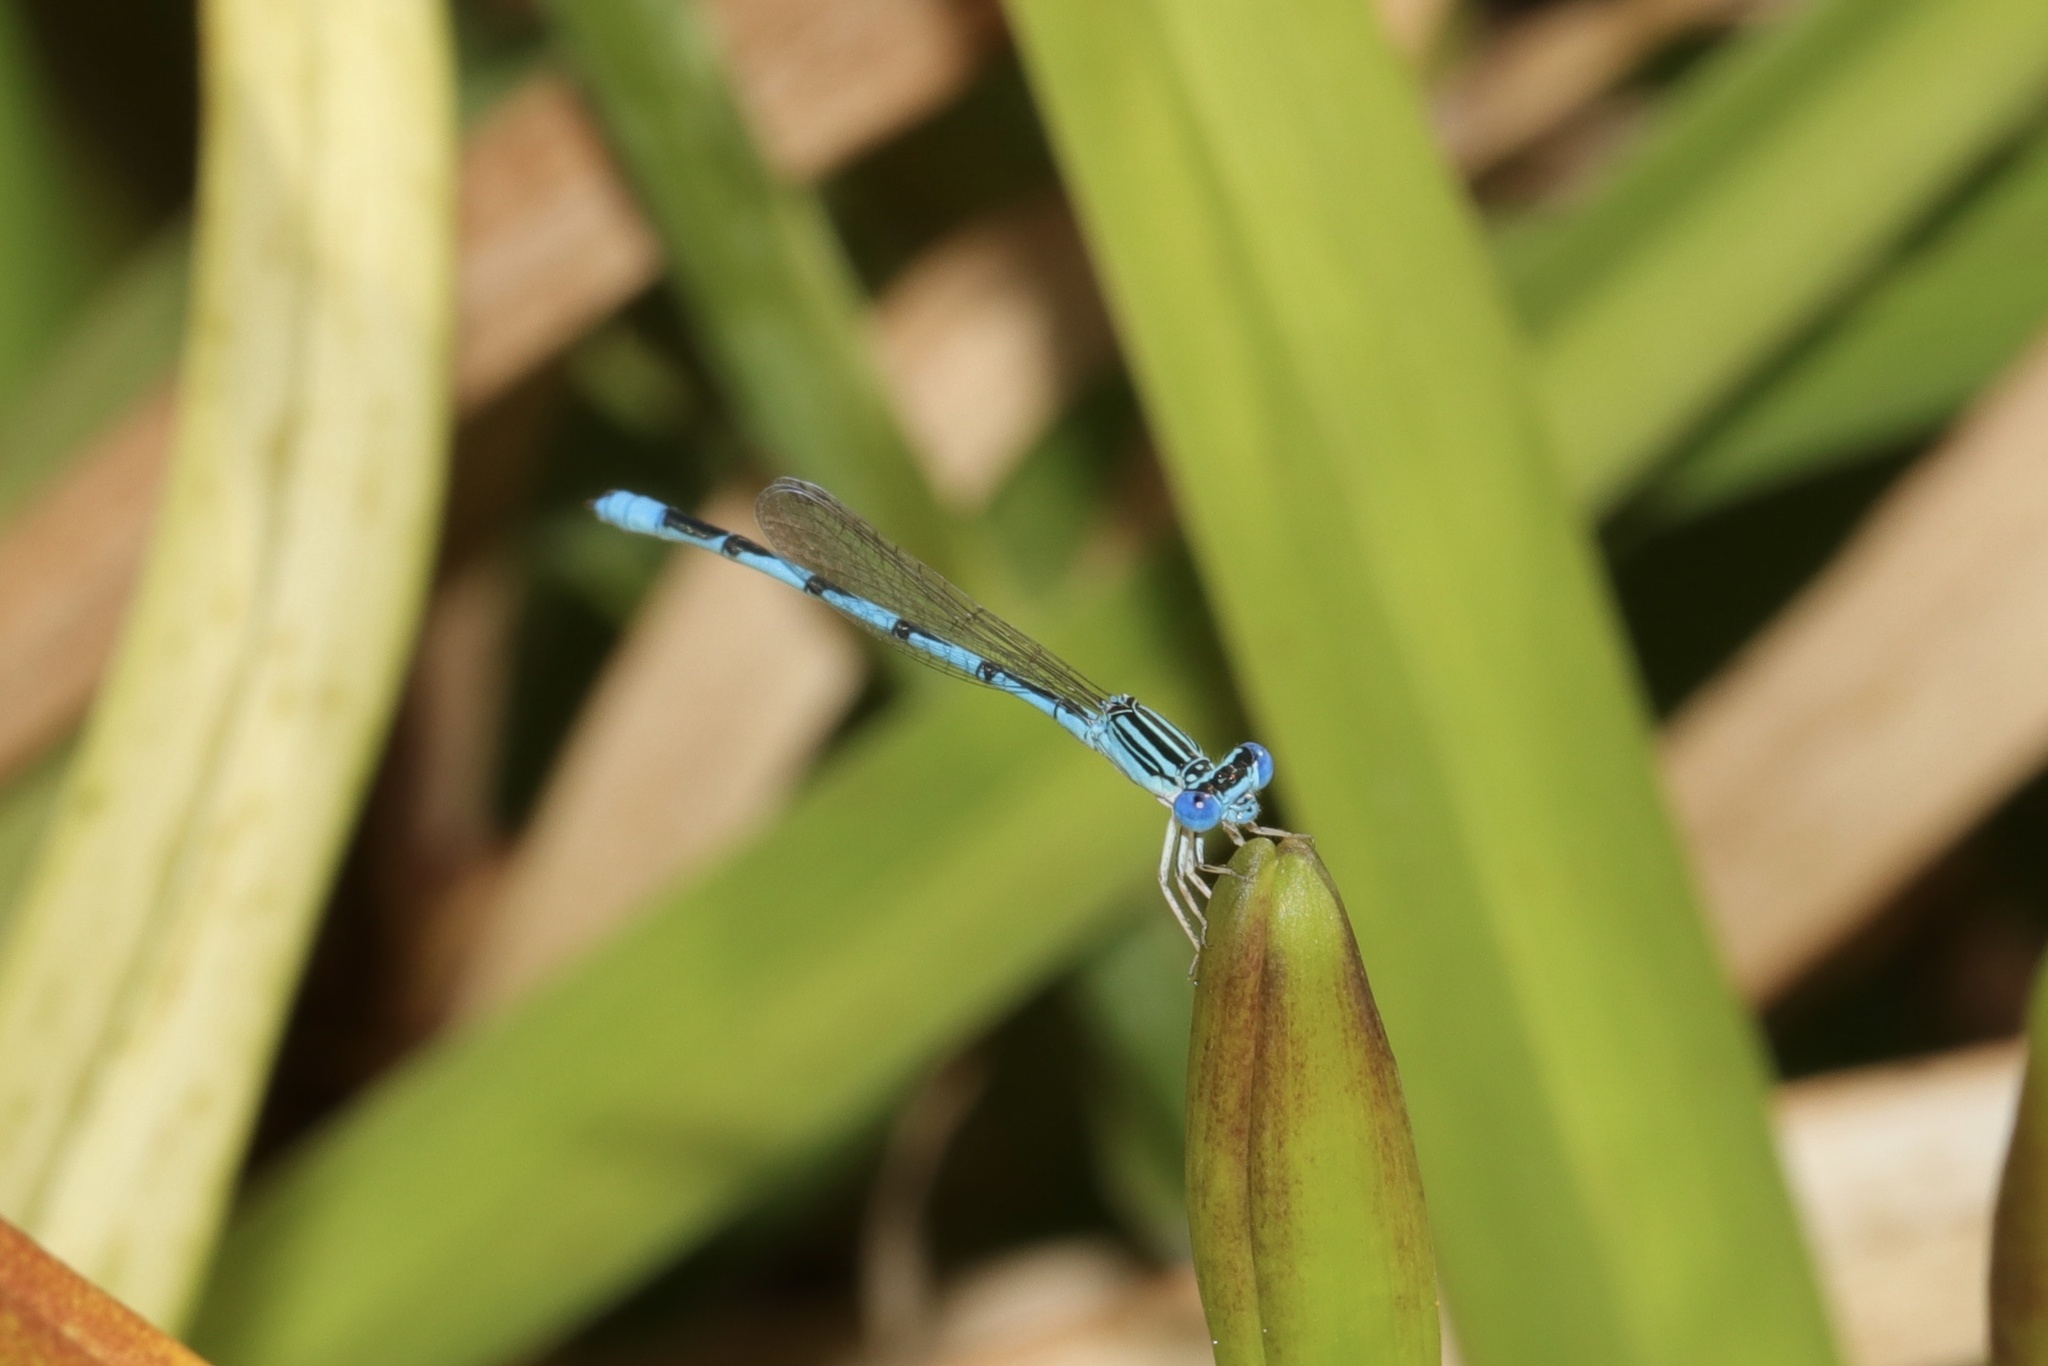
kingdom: Animalia
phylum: Arthropoda
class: Insecta
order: Odonata
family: Coenagrionidae
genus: Enallagma
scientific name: Enallagma basidens
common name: Double-striped bluet
